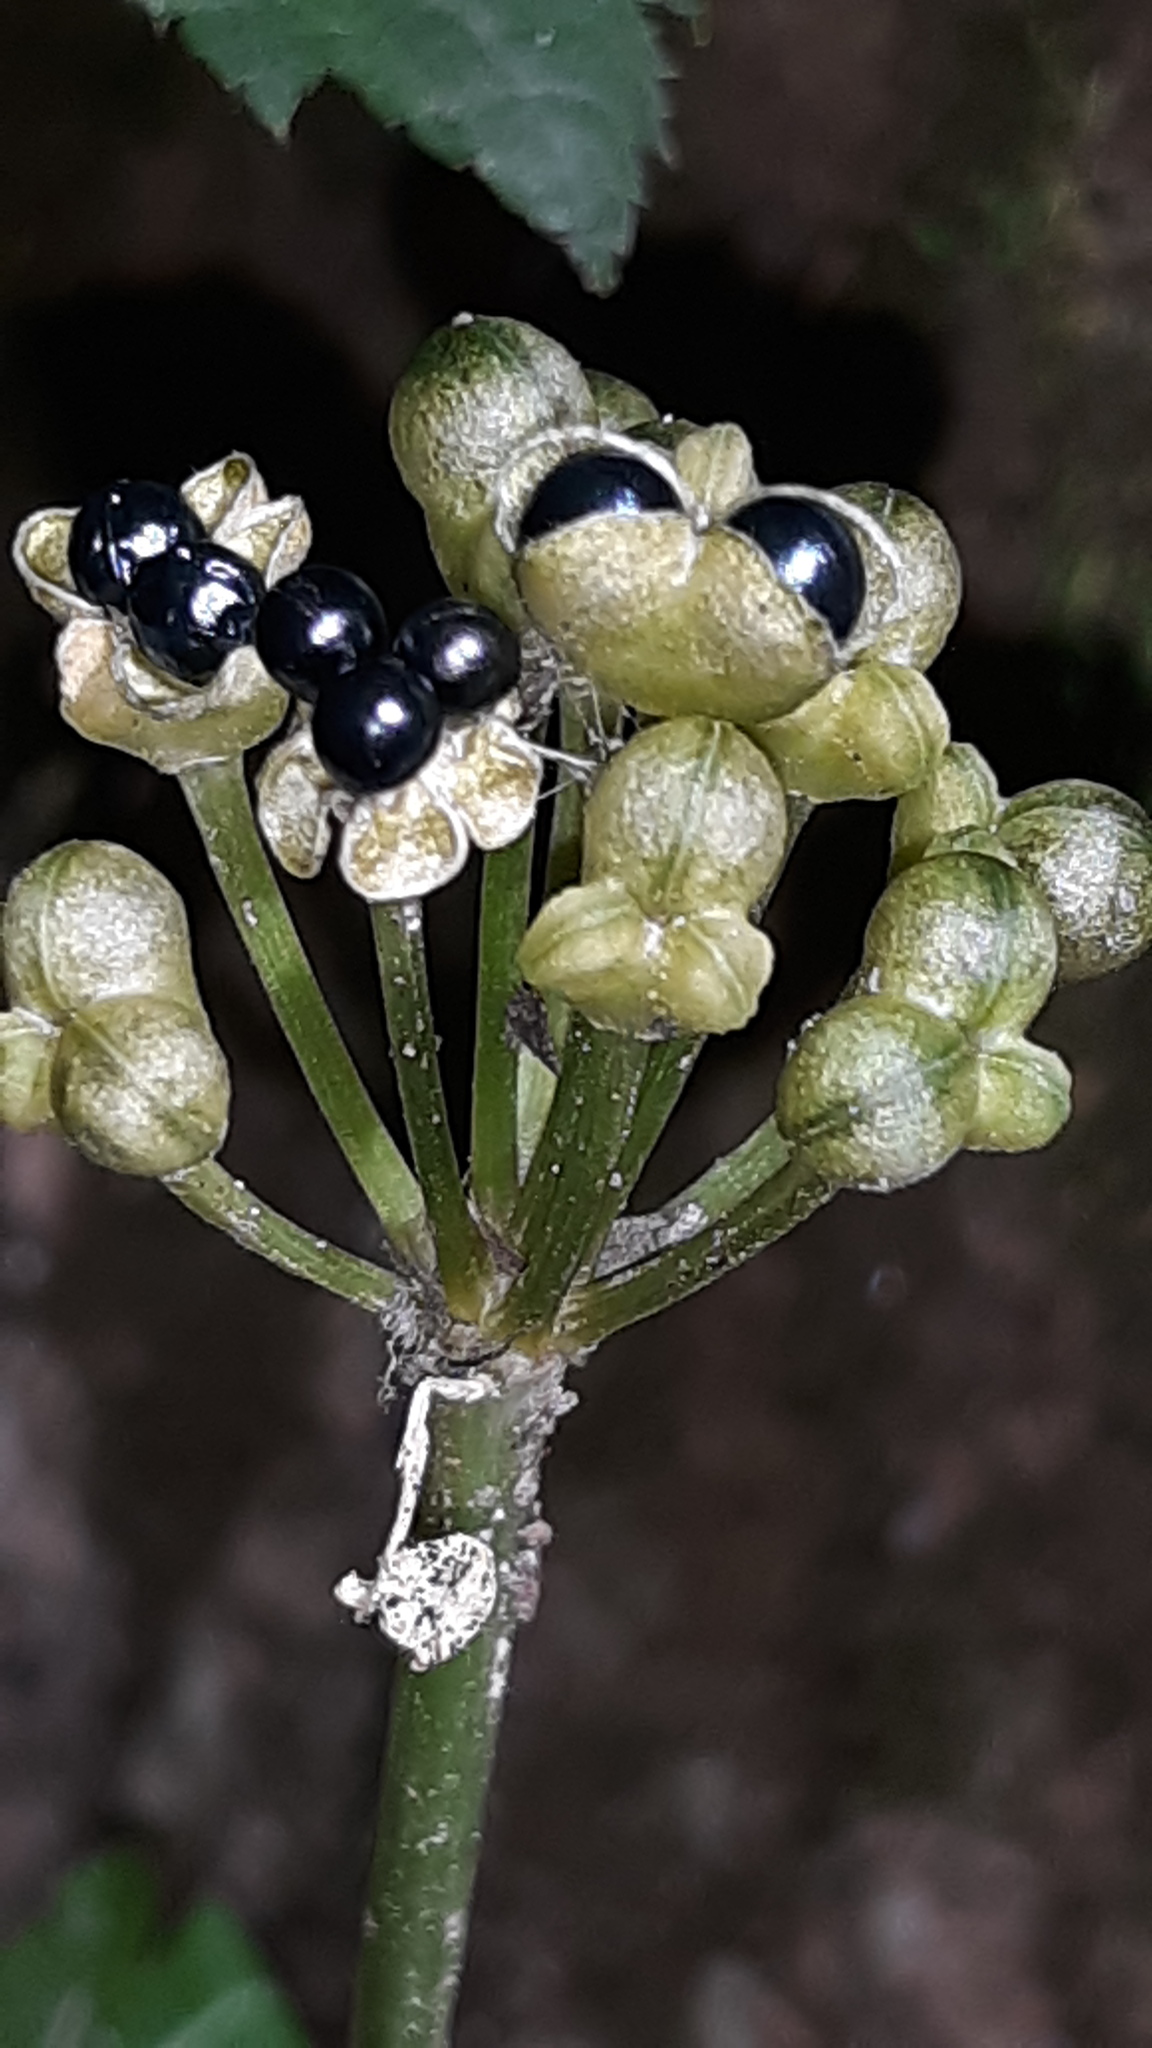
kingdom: Plantae
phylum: Tracheophyta
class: Liliopsida
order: Asparagales
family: Amaryllidaceae
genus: Allium
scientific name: Allium tricoccum
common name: Ramp
